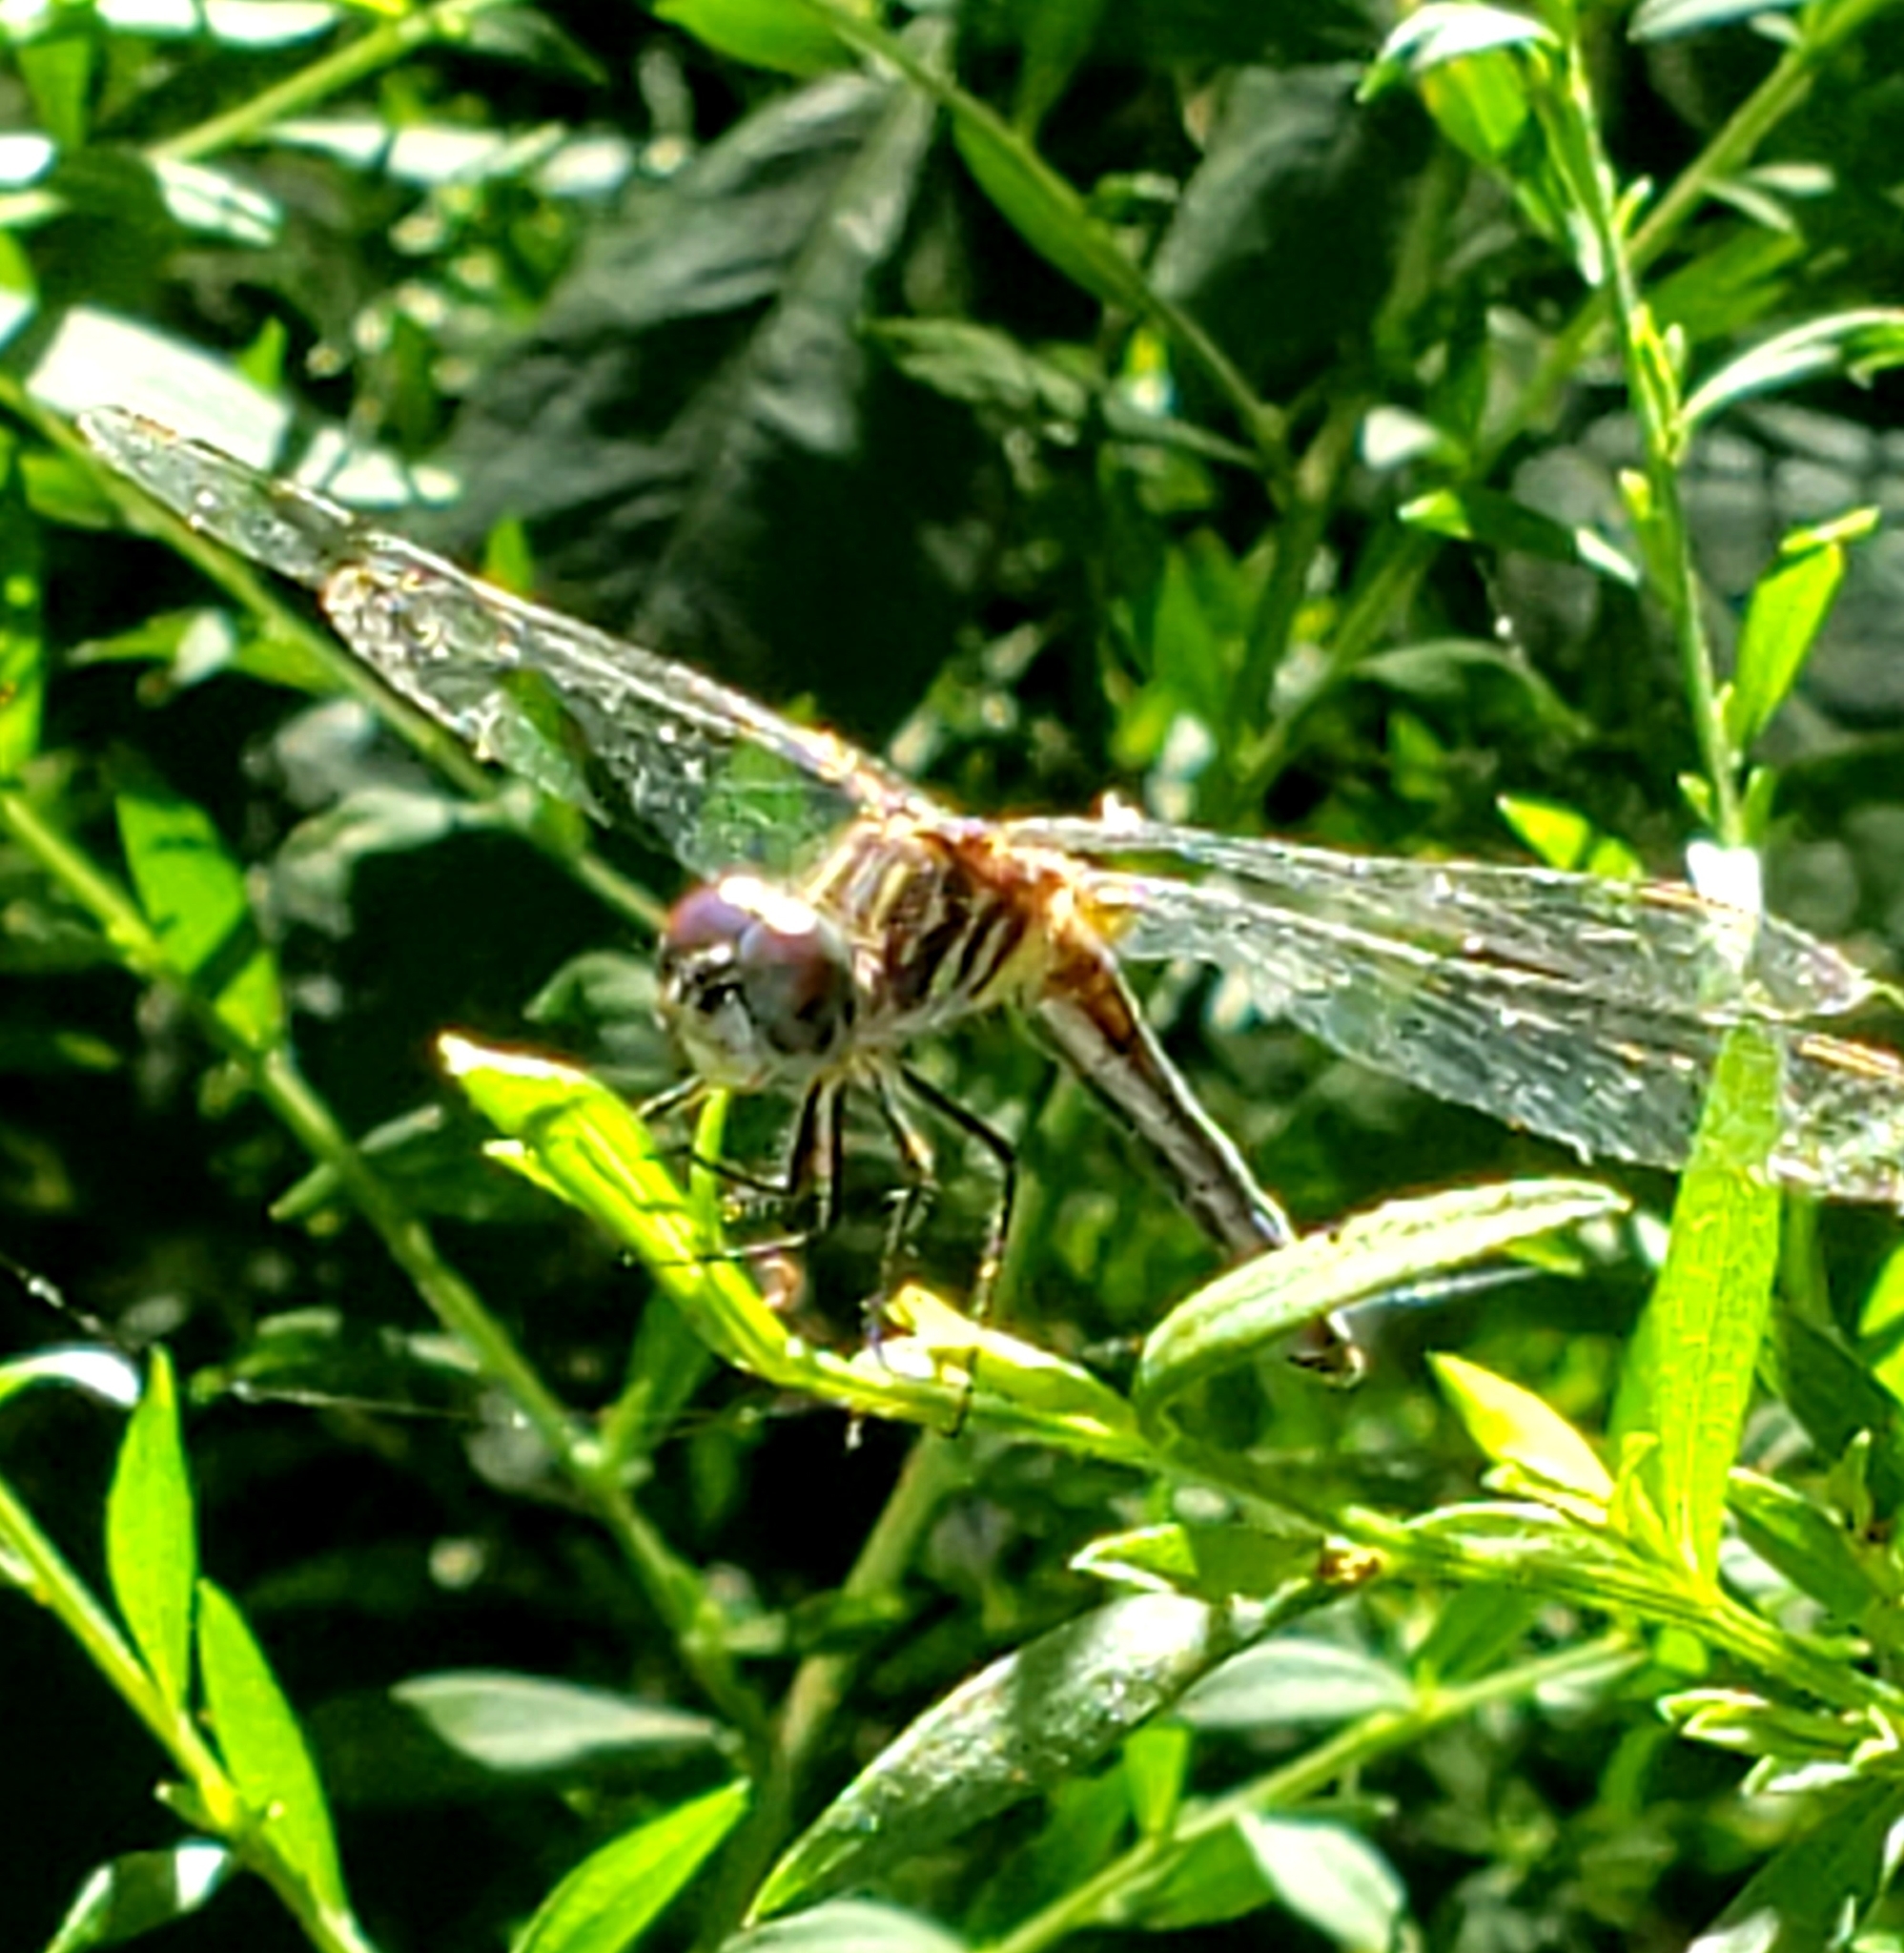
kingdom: Animalia
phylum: Arthropoda
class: Insecta
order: Odonata
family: Libellulidae
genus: Pachydiplax
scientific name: Pachydiplax longipennis
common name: Blue dasher
